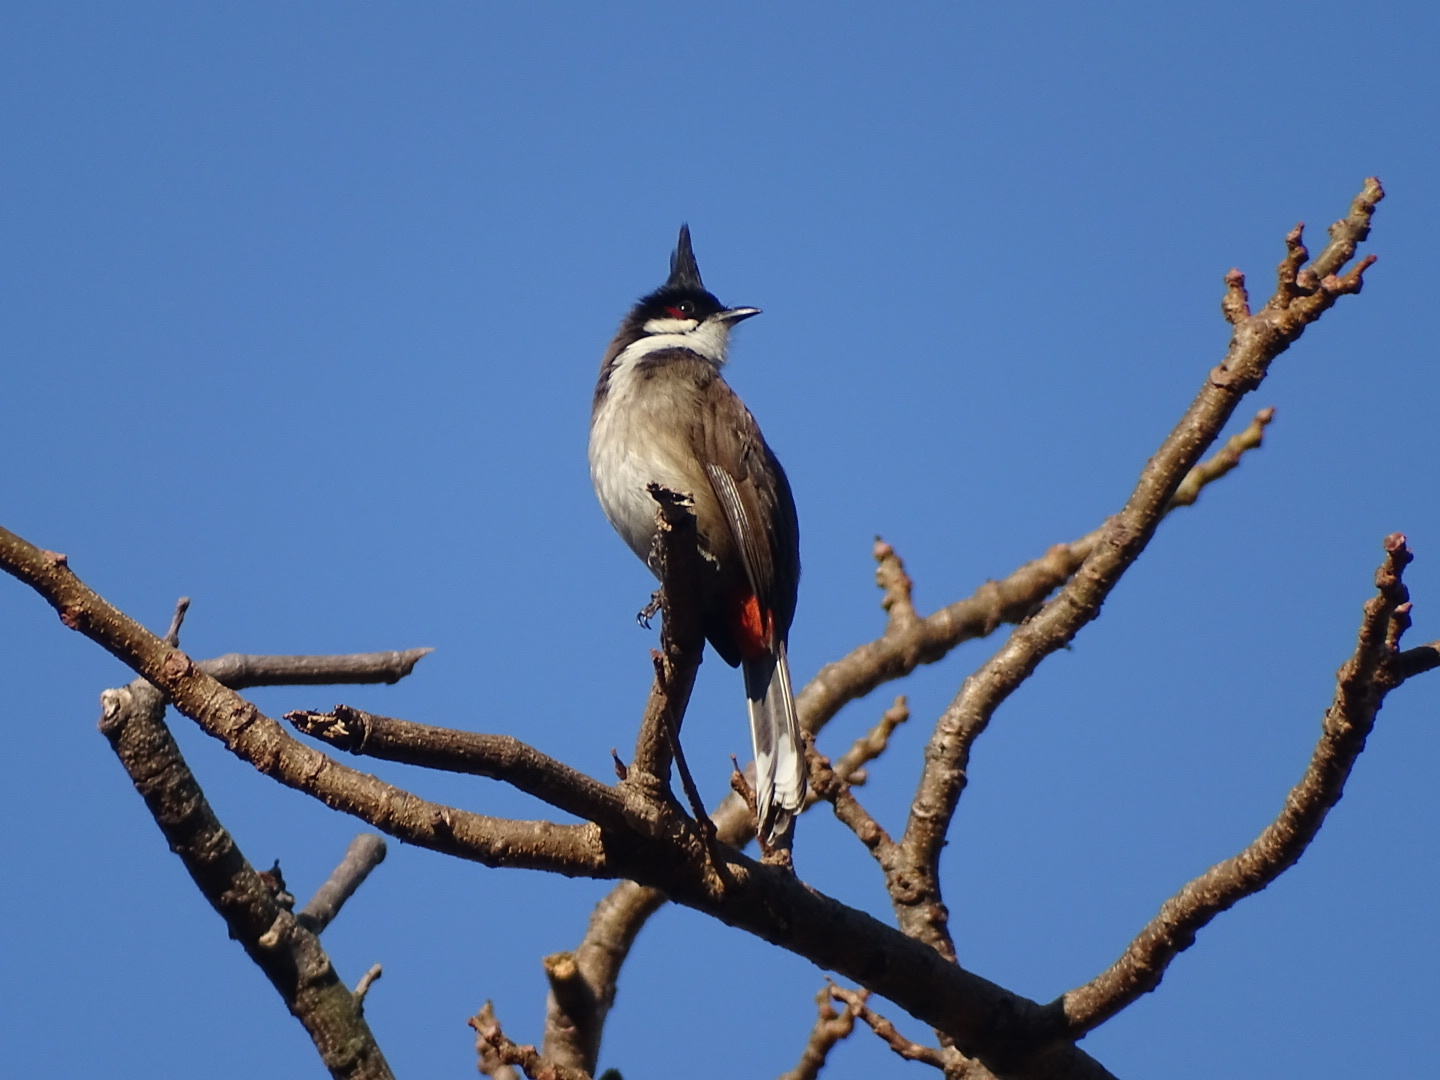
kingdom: Animalia
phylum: Chordata
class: Aves
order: Passeriformes
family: Pycnonotidae
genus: Pycnonotus
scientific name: Pycnonotus jocosus
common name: Red-whiskered bulbul
